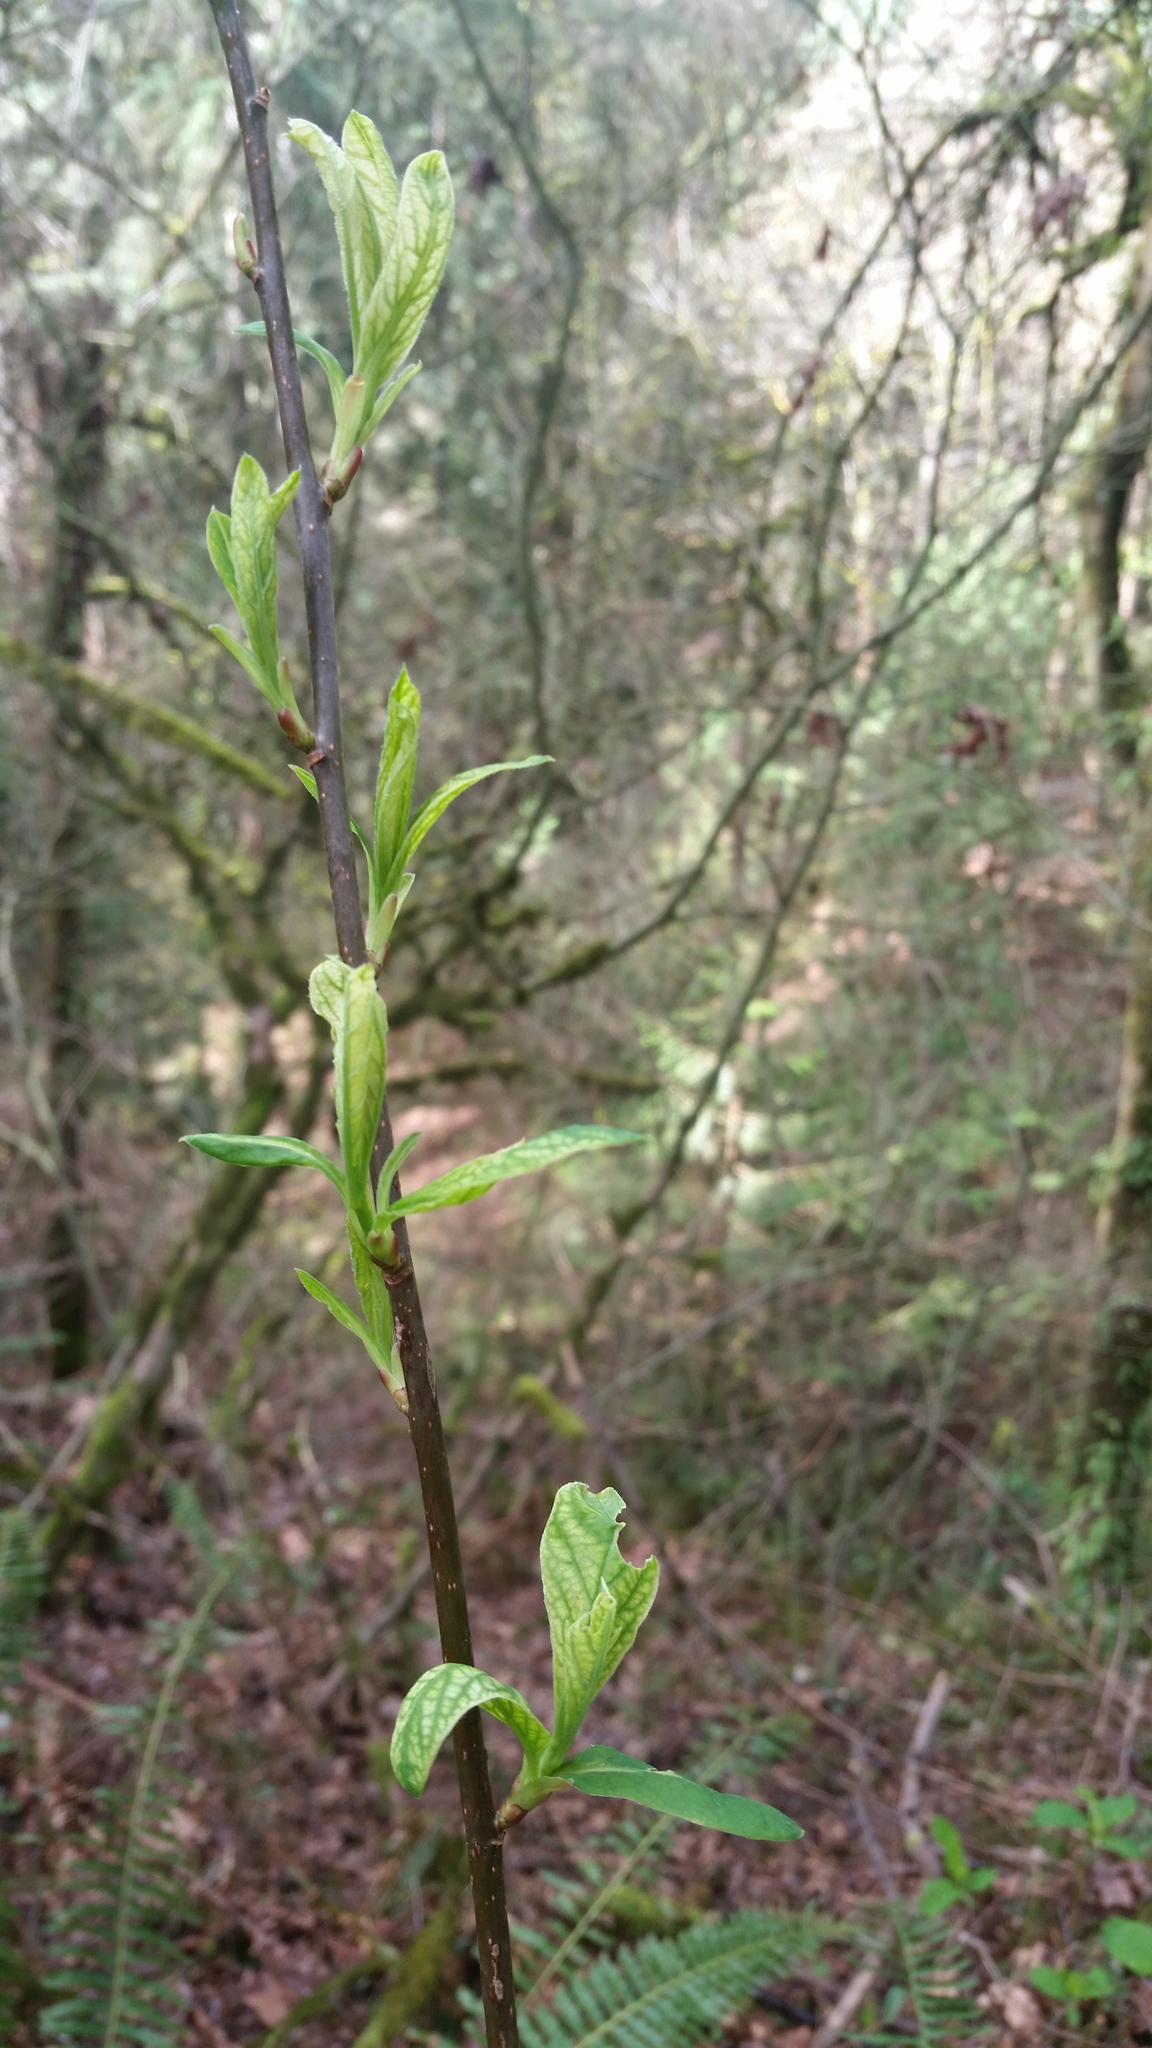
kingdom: Plantae
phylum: Tracheophyta
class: Magnoliopsida
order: Rosales
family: Rosaceae
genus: Oemleria
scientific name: Oemleria cerasiformis
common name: Osoberry
